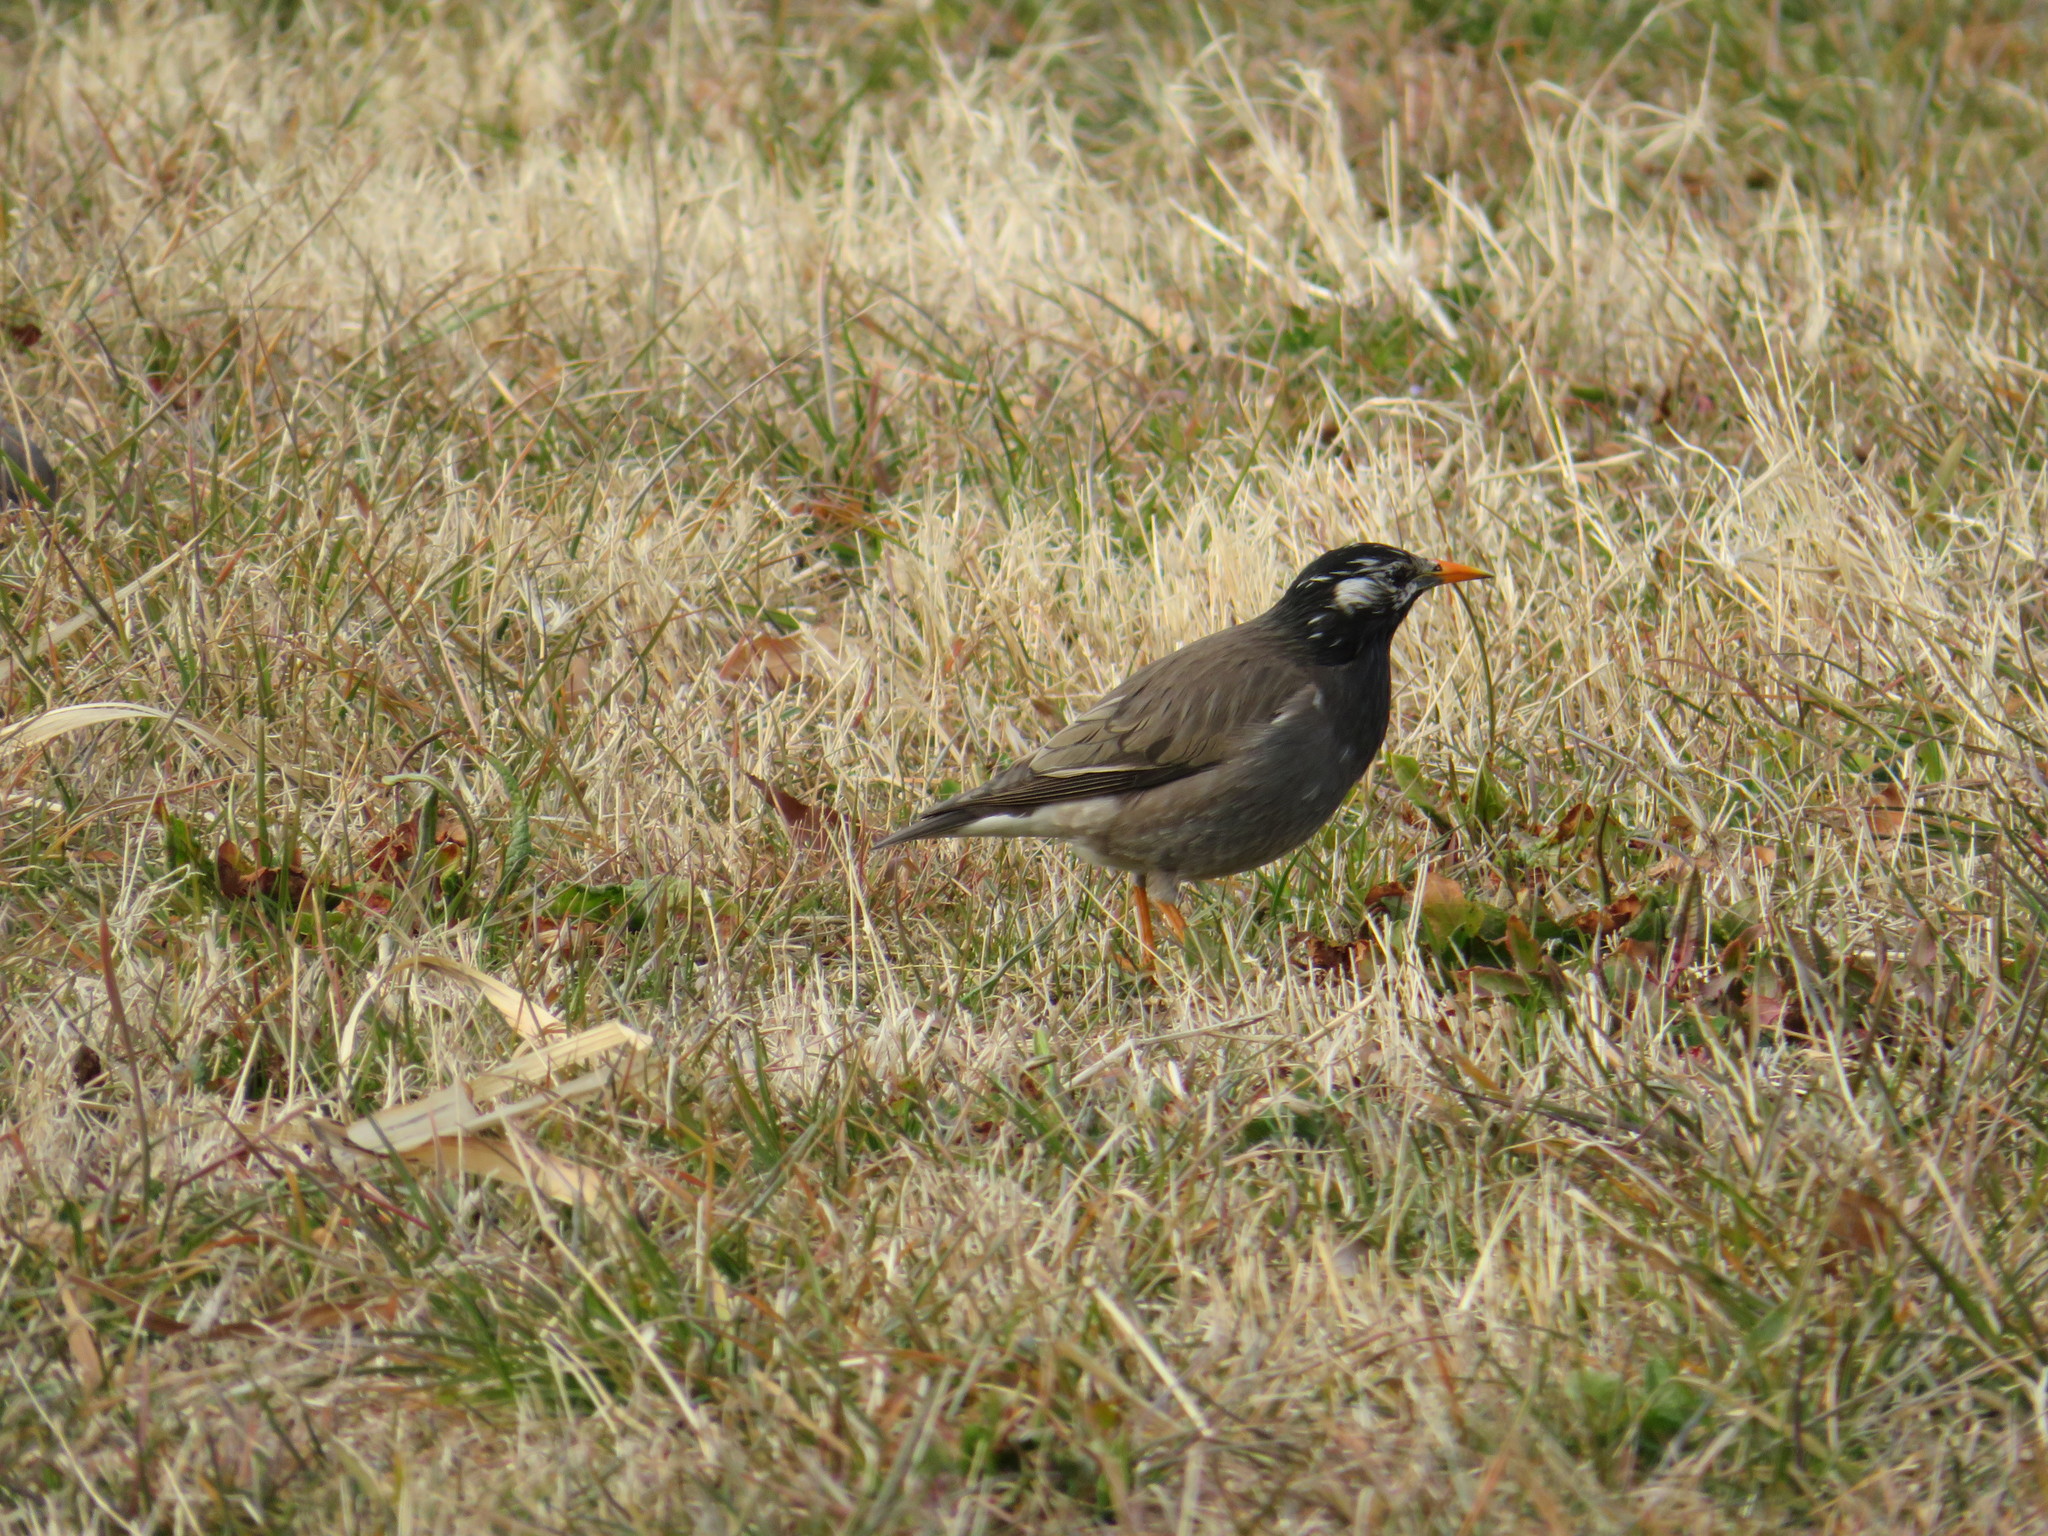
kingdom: Animalia
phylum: Chordata
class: Aves
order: Passeriformes
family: Sturnidae
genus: Spodiopsar
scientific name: Spodiopsar cineraceus
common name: White-cheeked starling
